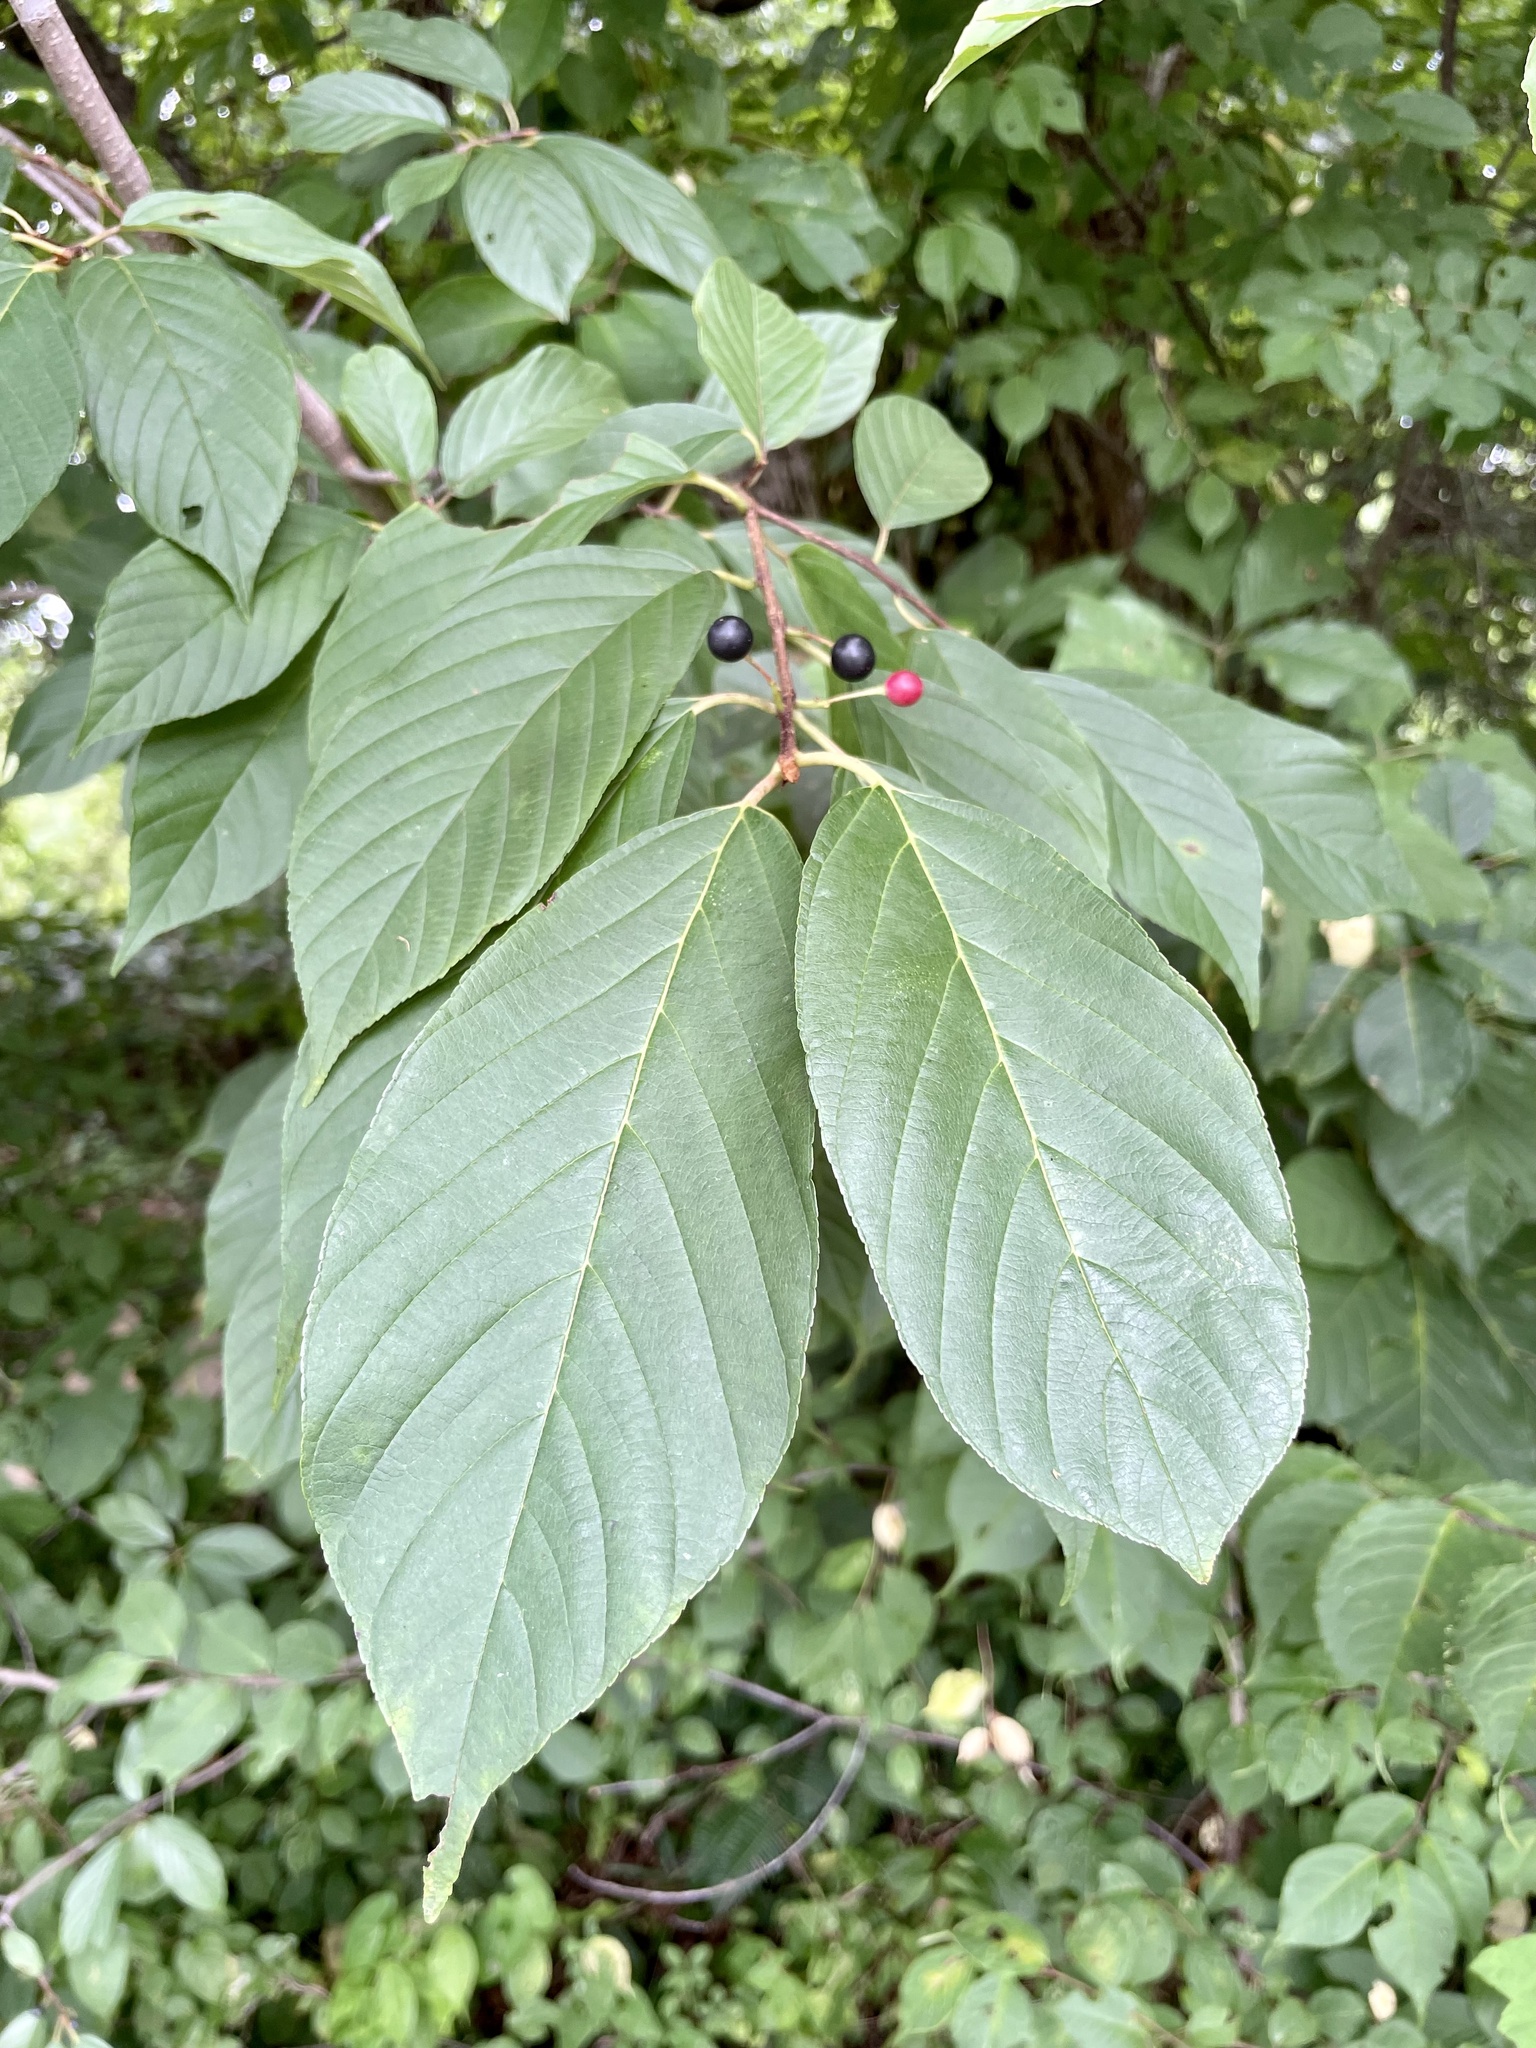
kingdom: Plantae
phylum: Tracheophyta
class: Magnoliopsida
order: Rosales
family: Rhamnaceae
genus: Frangula
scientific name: Frangula crenata
